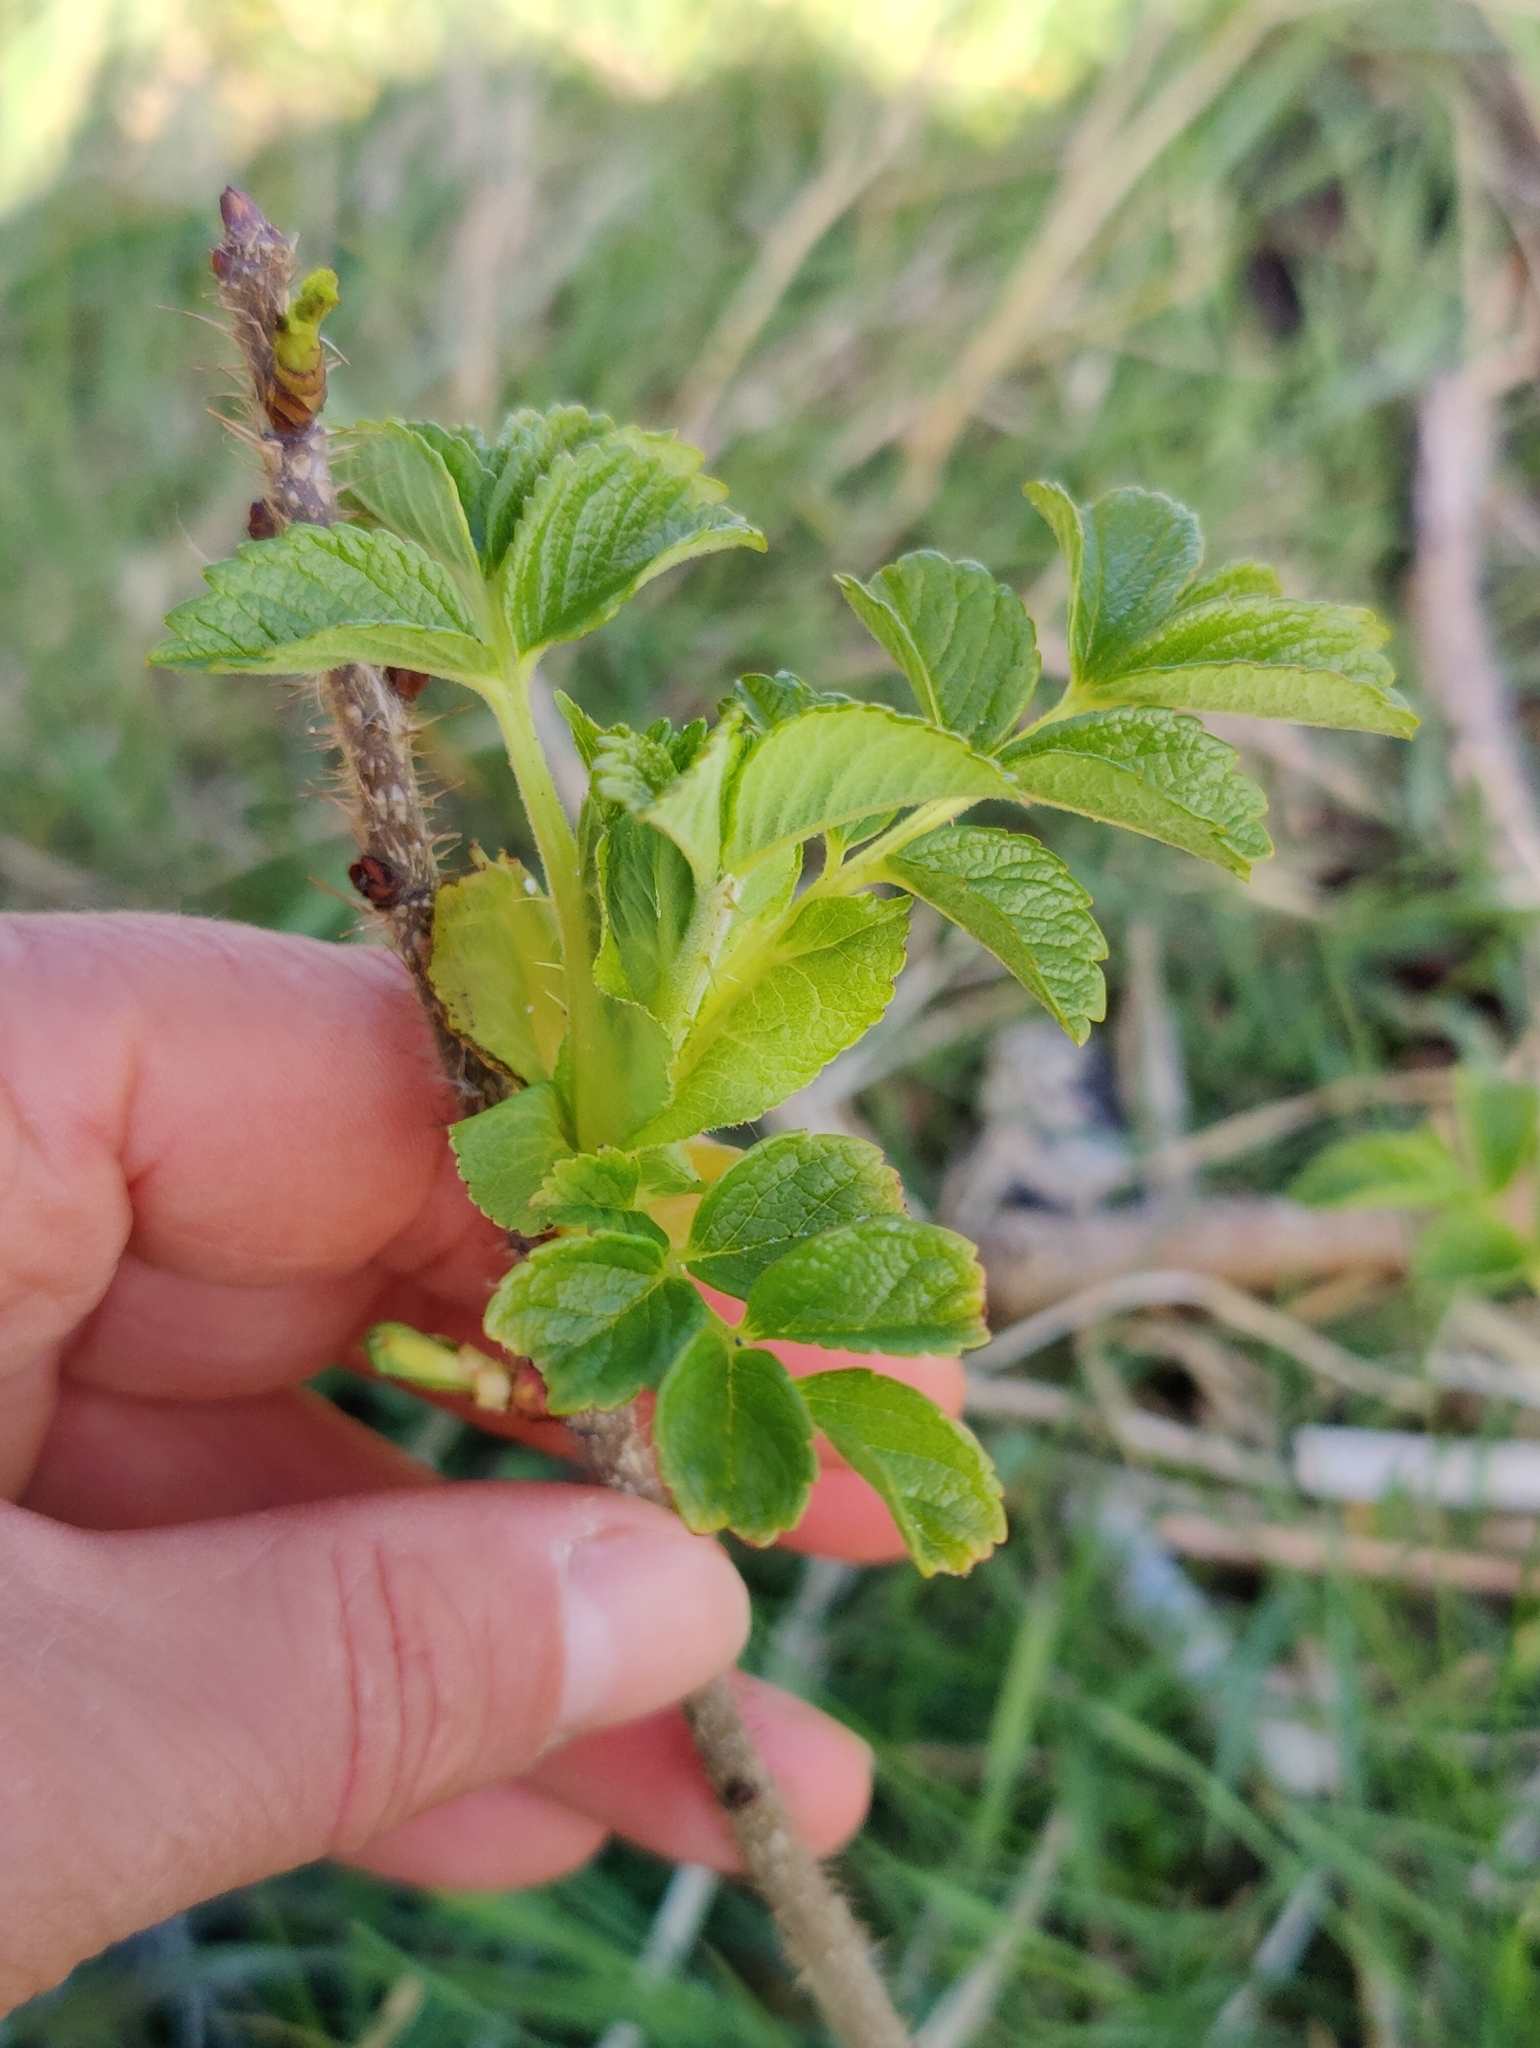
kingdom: Plantae
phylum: Tracheophyta
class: Magnoliopsida
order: Rosales
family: Rosaceae
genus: Rosa
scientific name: Rosa rugosa
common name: Japanese rose
